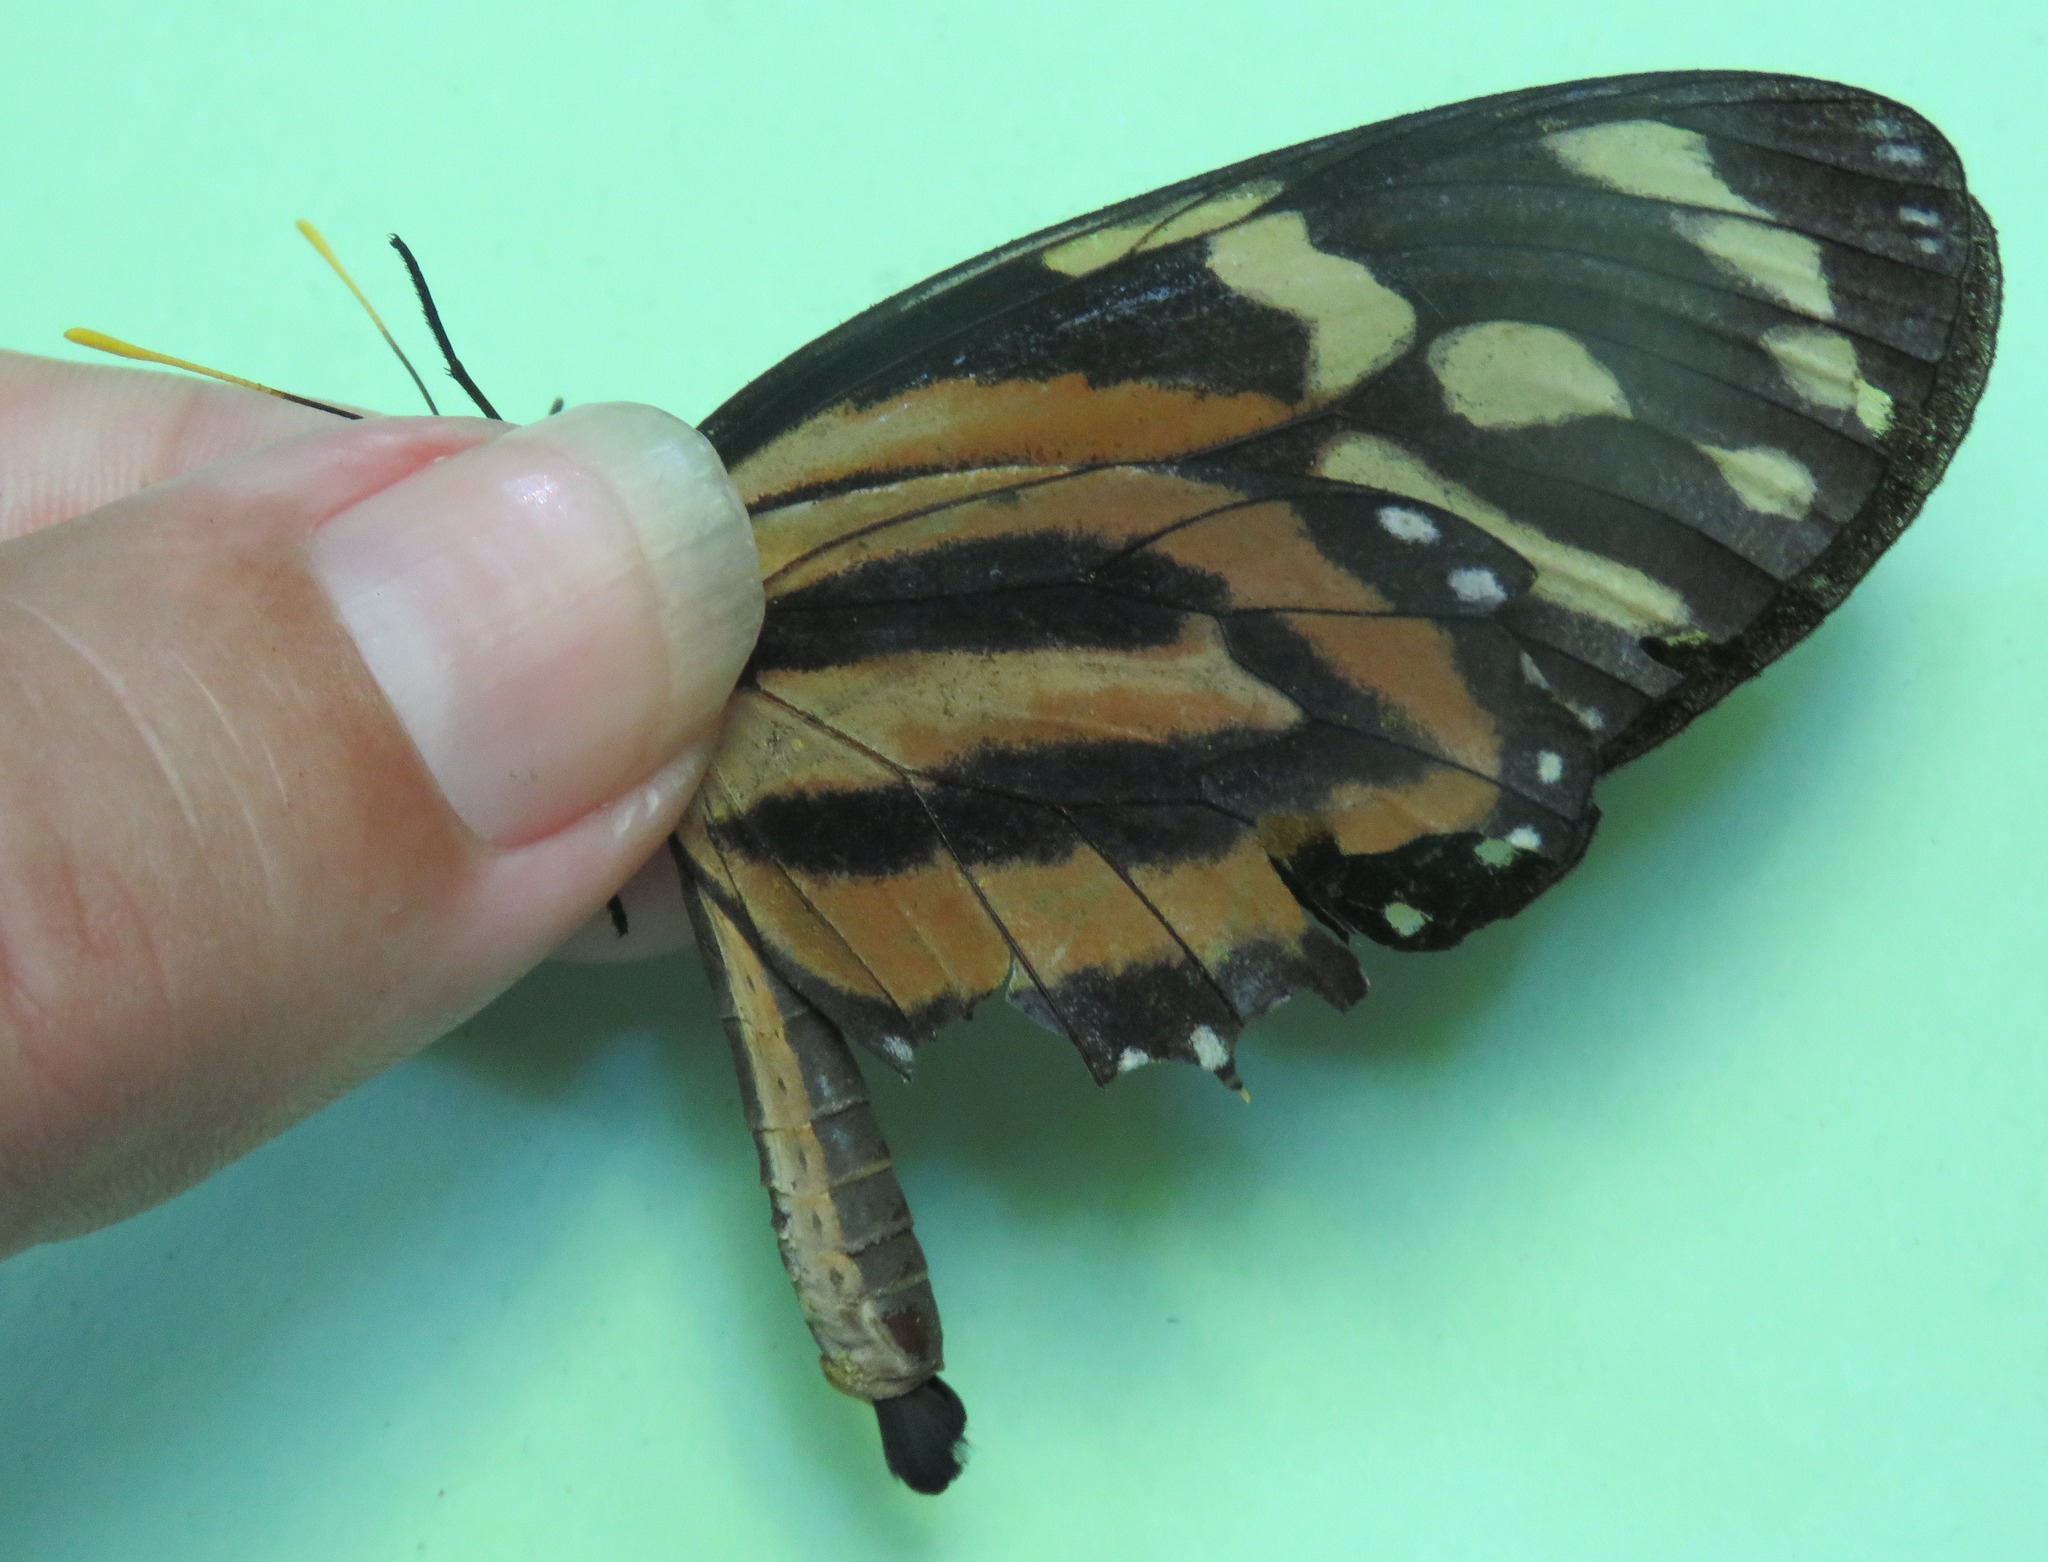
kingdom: Animalia
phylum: Arthropoda
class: Insecta
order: Lepidoptera
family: Nymphalidae
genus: Lycorea
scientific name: Lycorea cleobaea
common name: Tiger mimic-queen
